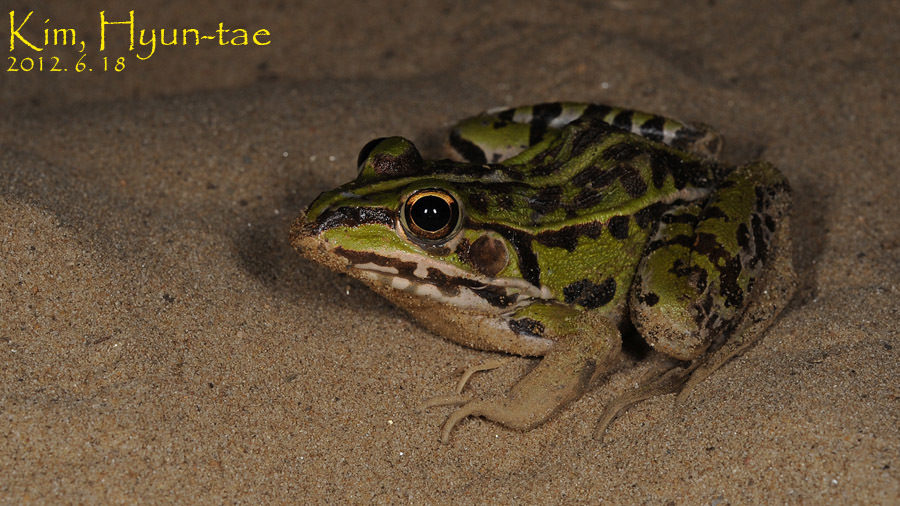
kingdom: Animalia
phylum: Chordata
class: Amphibia
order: Anura
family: Ranidae
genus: Pelophylax
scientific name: Pelophylax nigromaculatus
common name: Black-spotted pond frog
